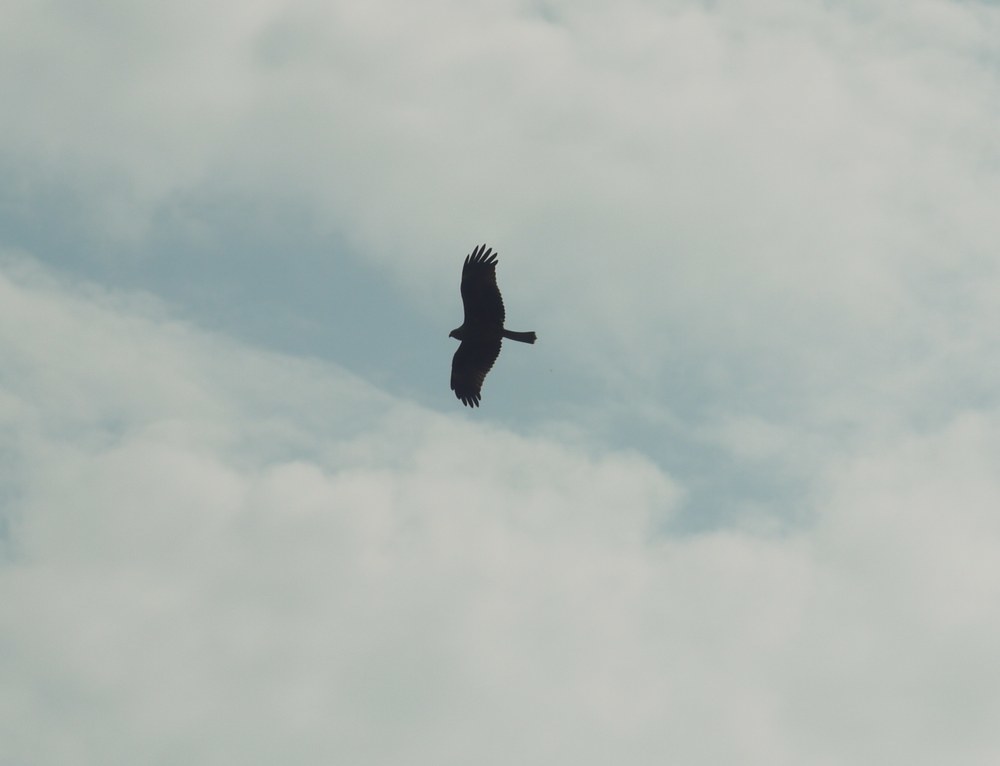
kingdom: Animalia
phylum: Chordata
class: Aves
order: Accipitriformes
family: Accipitridae
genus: Milvus
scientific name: Milvus migrans
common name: Black kite
